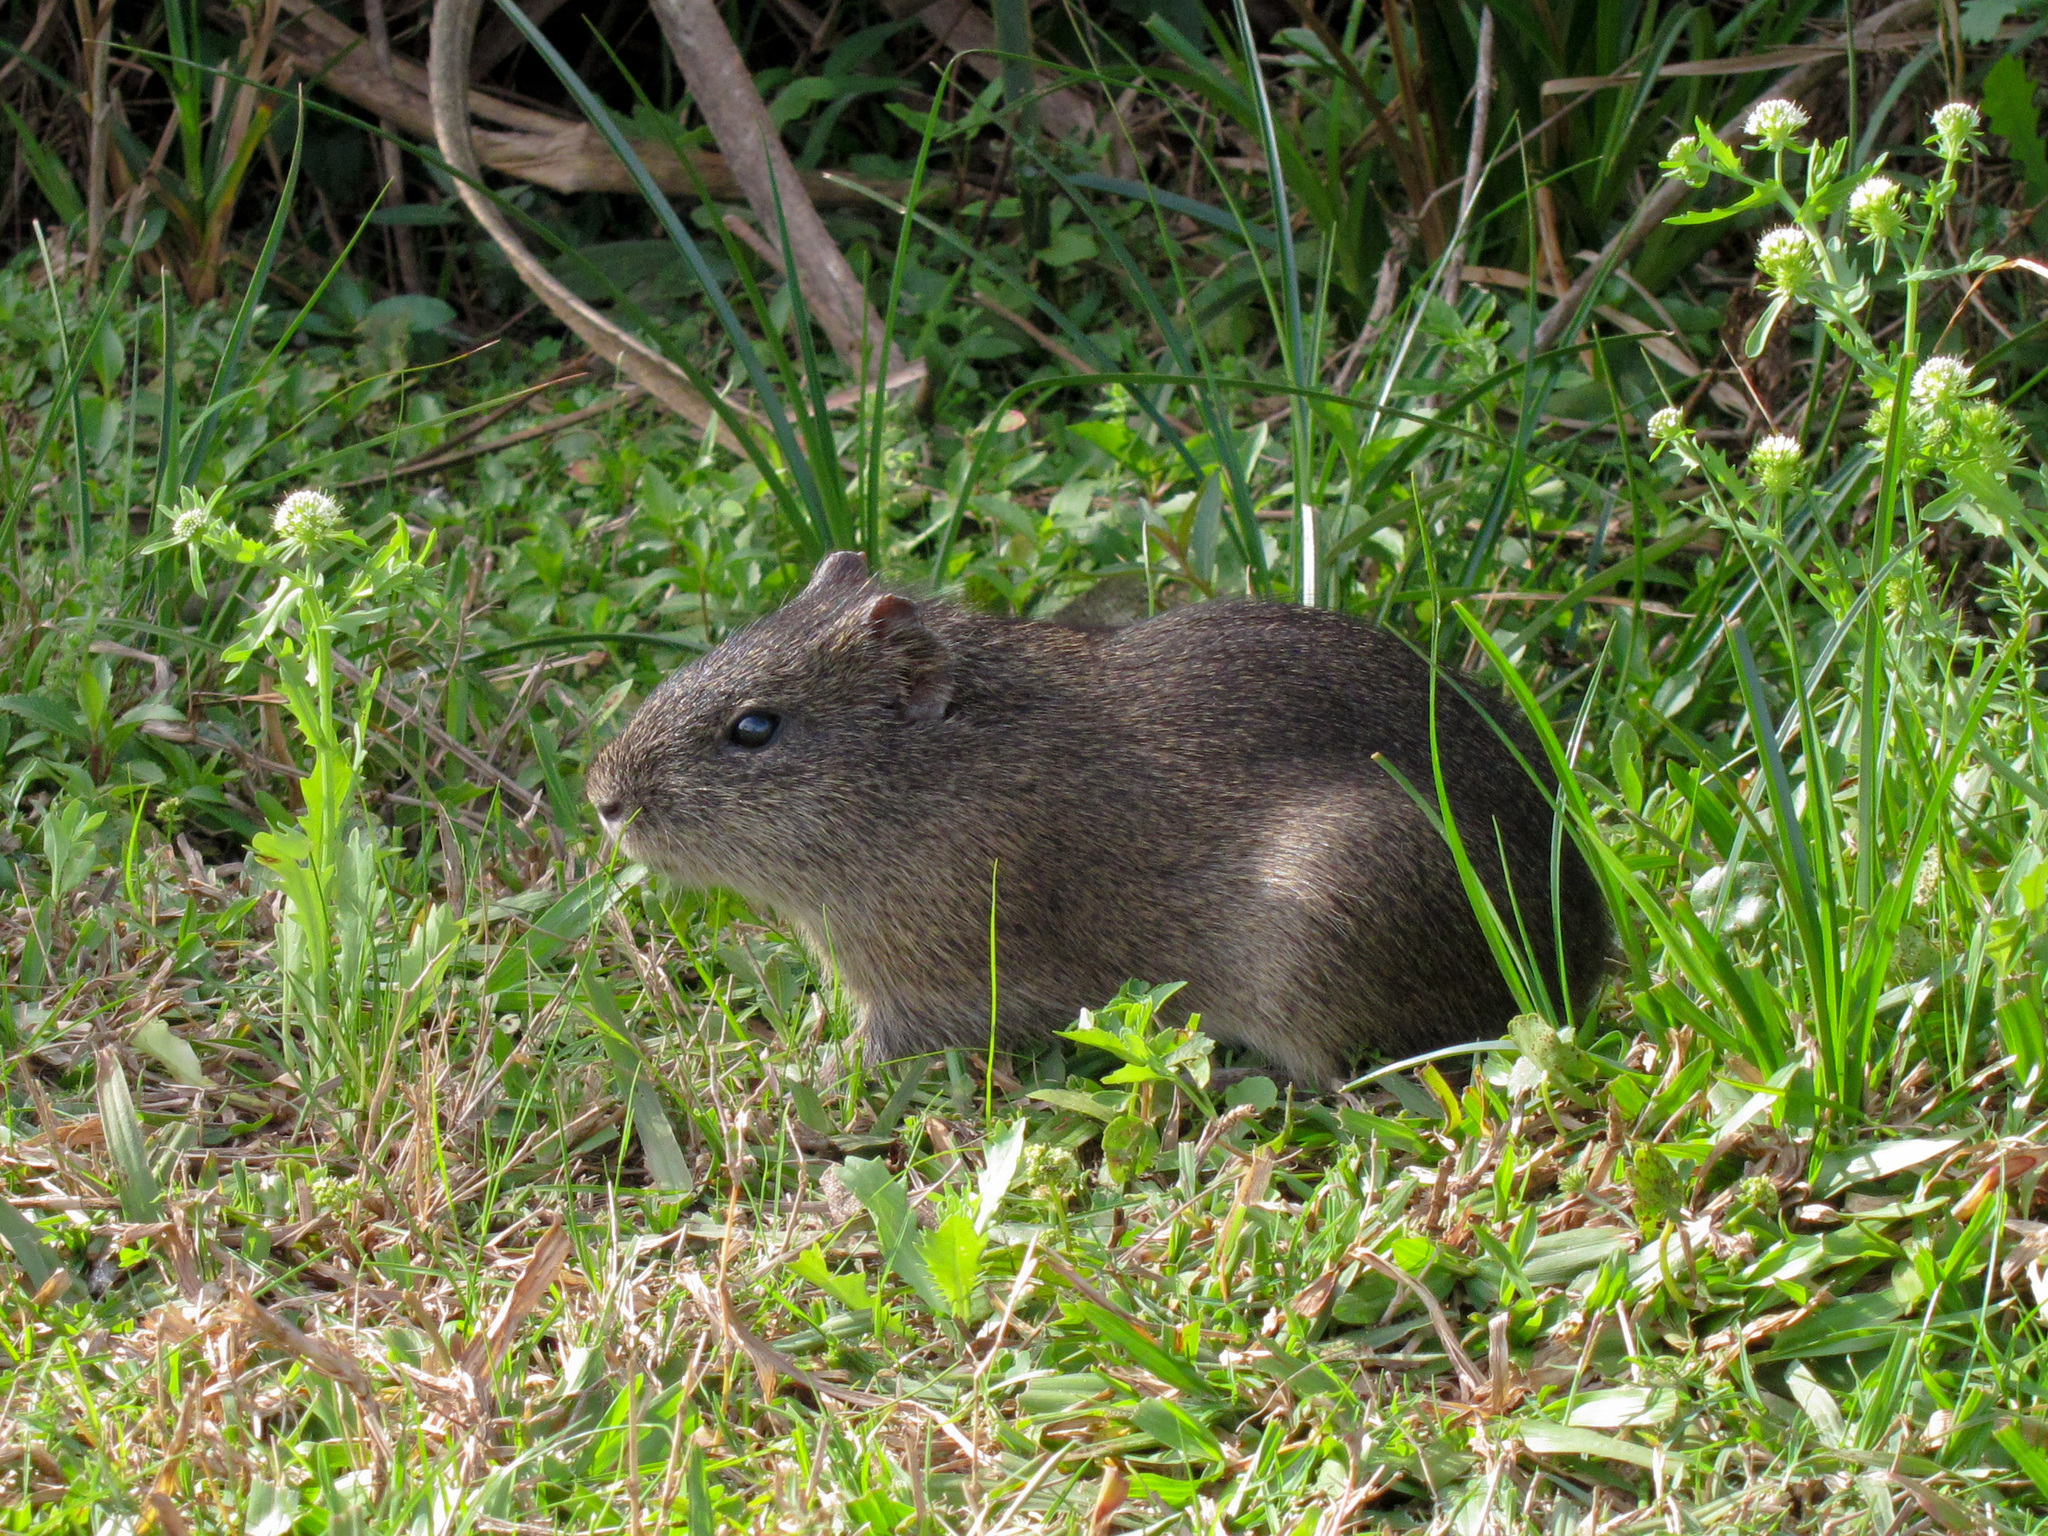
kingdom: Animalia
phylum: Chordata
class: Mammalia
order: Rodentia
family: Caviidae
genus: Cavia
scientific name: Cavia aperea
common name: Brazilian guinea pig
